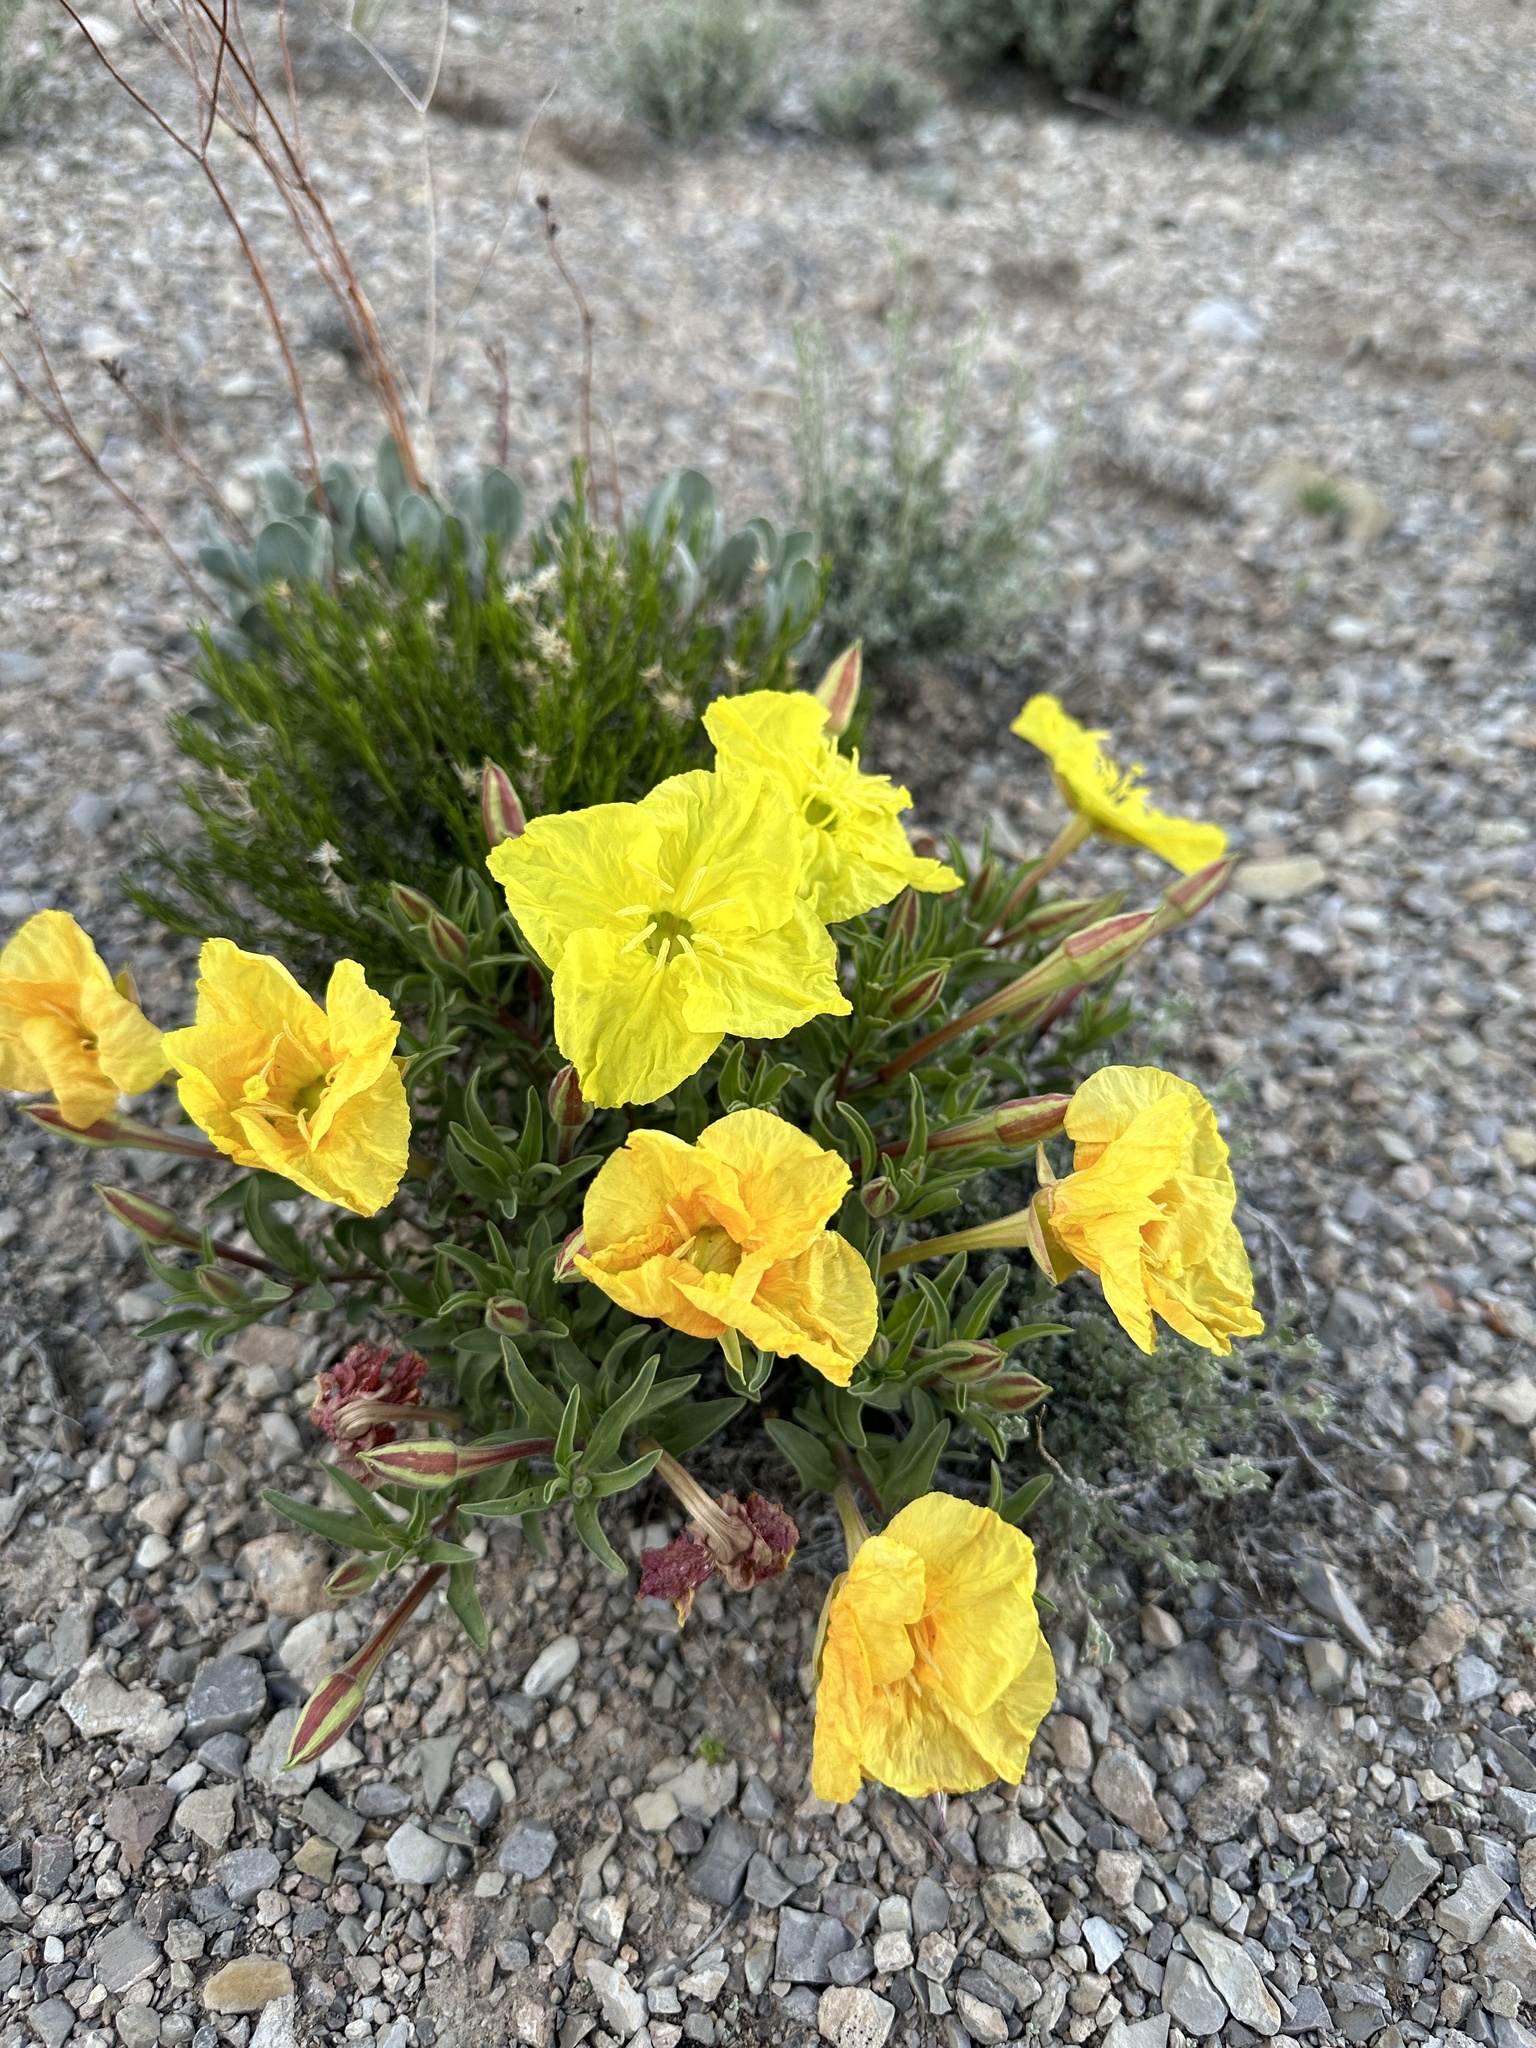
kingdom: Plantae
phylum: Tracheophyta
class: Magnoliopsida
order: Myrtales
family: Onagraceae
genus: Oenothera
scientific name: Oenothera lavandulifolia
